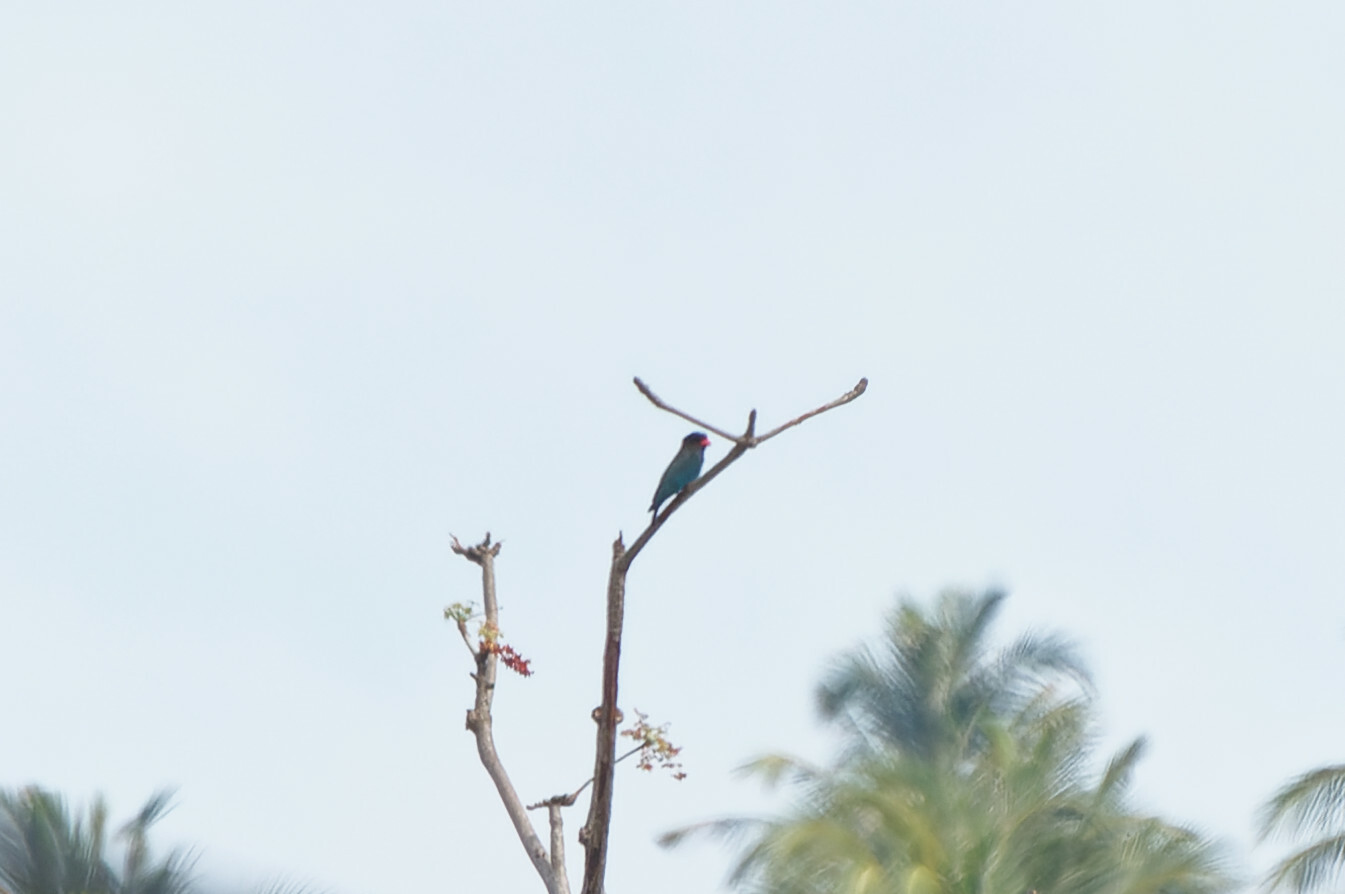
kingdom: Animalia
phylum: Chordata
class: Aves
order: Coraciiformes
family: Coraciidae
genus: Eurystomus
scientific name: Eurystomus orientalis
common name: Oriental dollarbird
